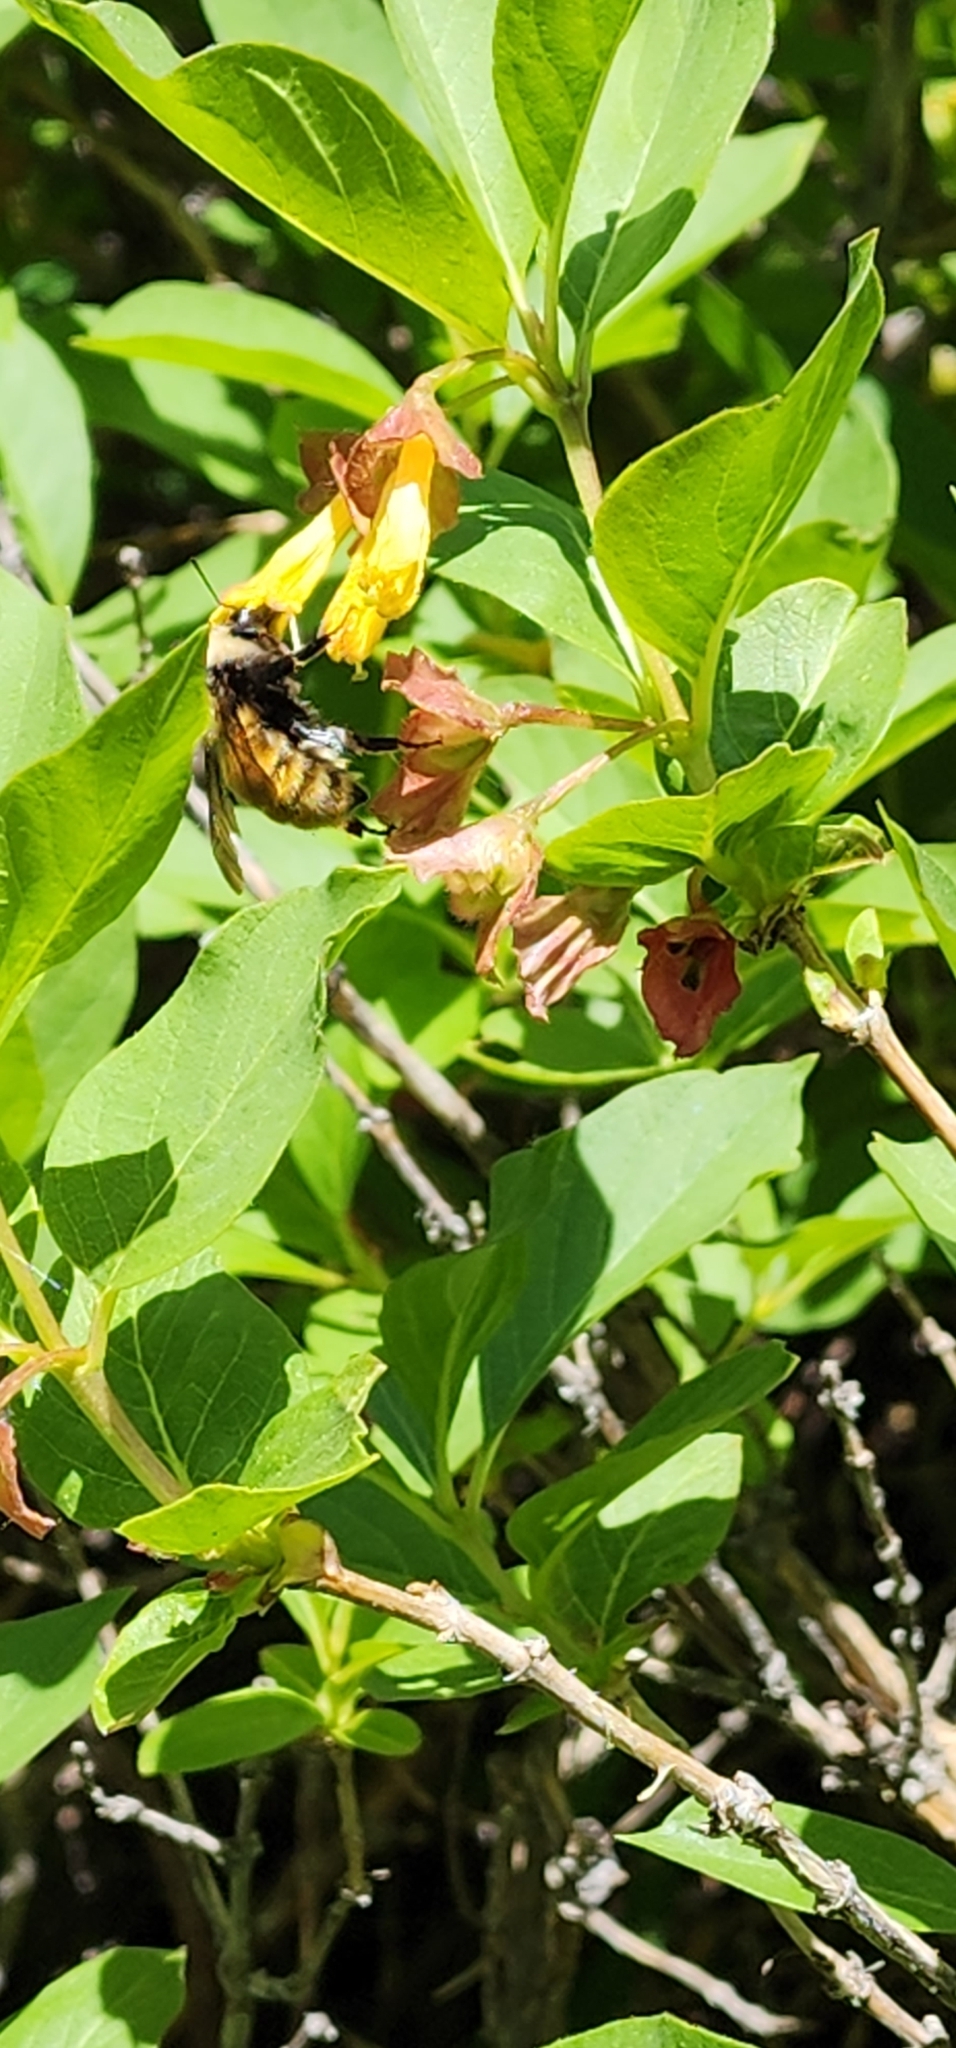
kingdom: Animalia
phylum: Arthropoda
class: Insecta
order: Hymenoptera
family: Apidae
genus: Bombus
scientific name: Bombus appositus
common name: White-shouldered bumble bee
